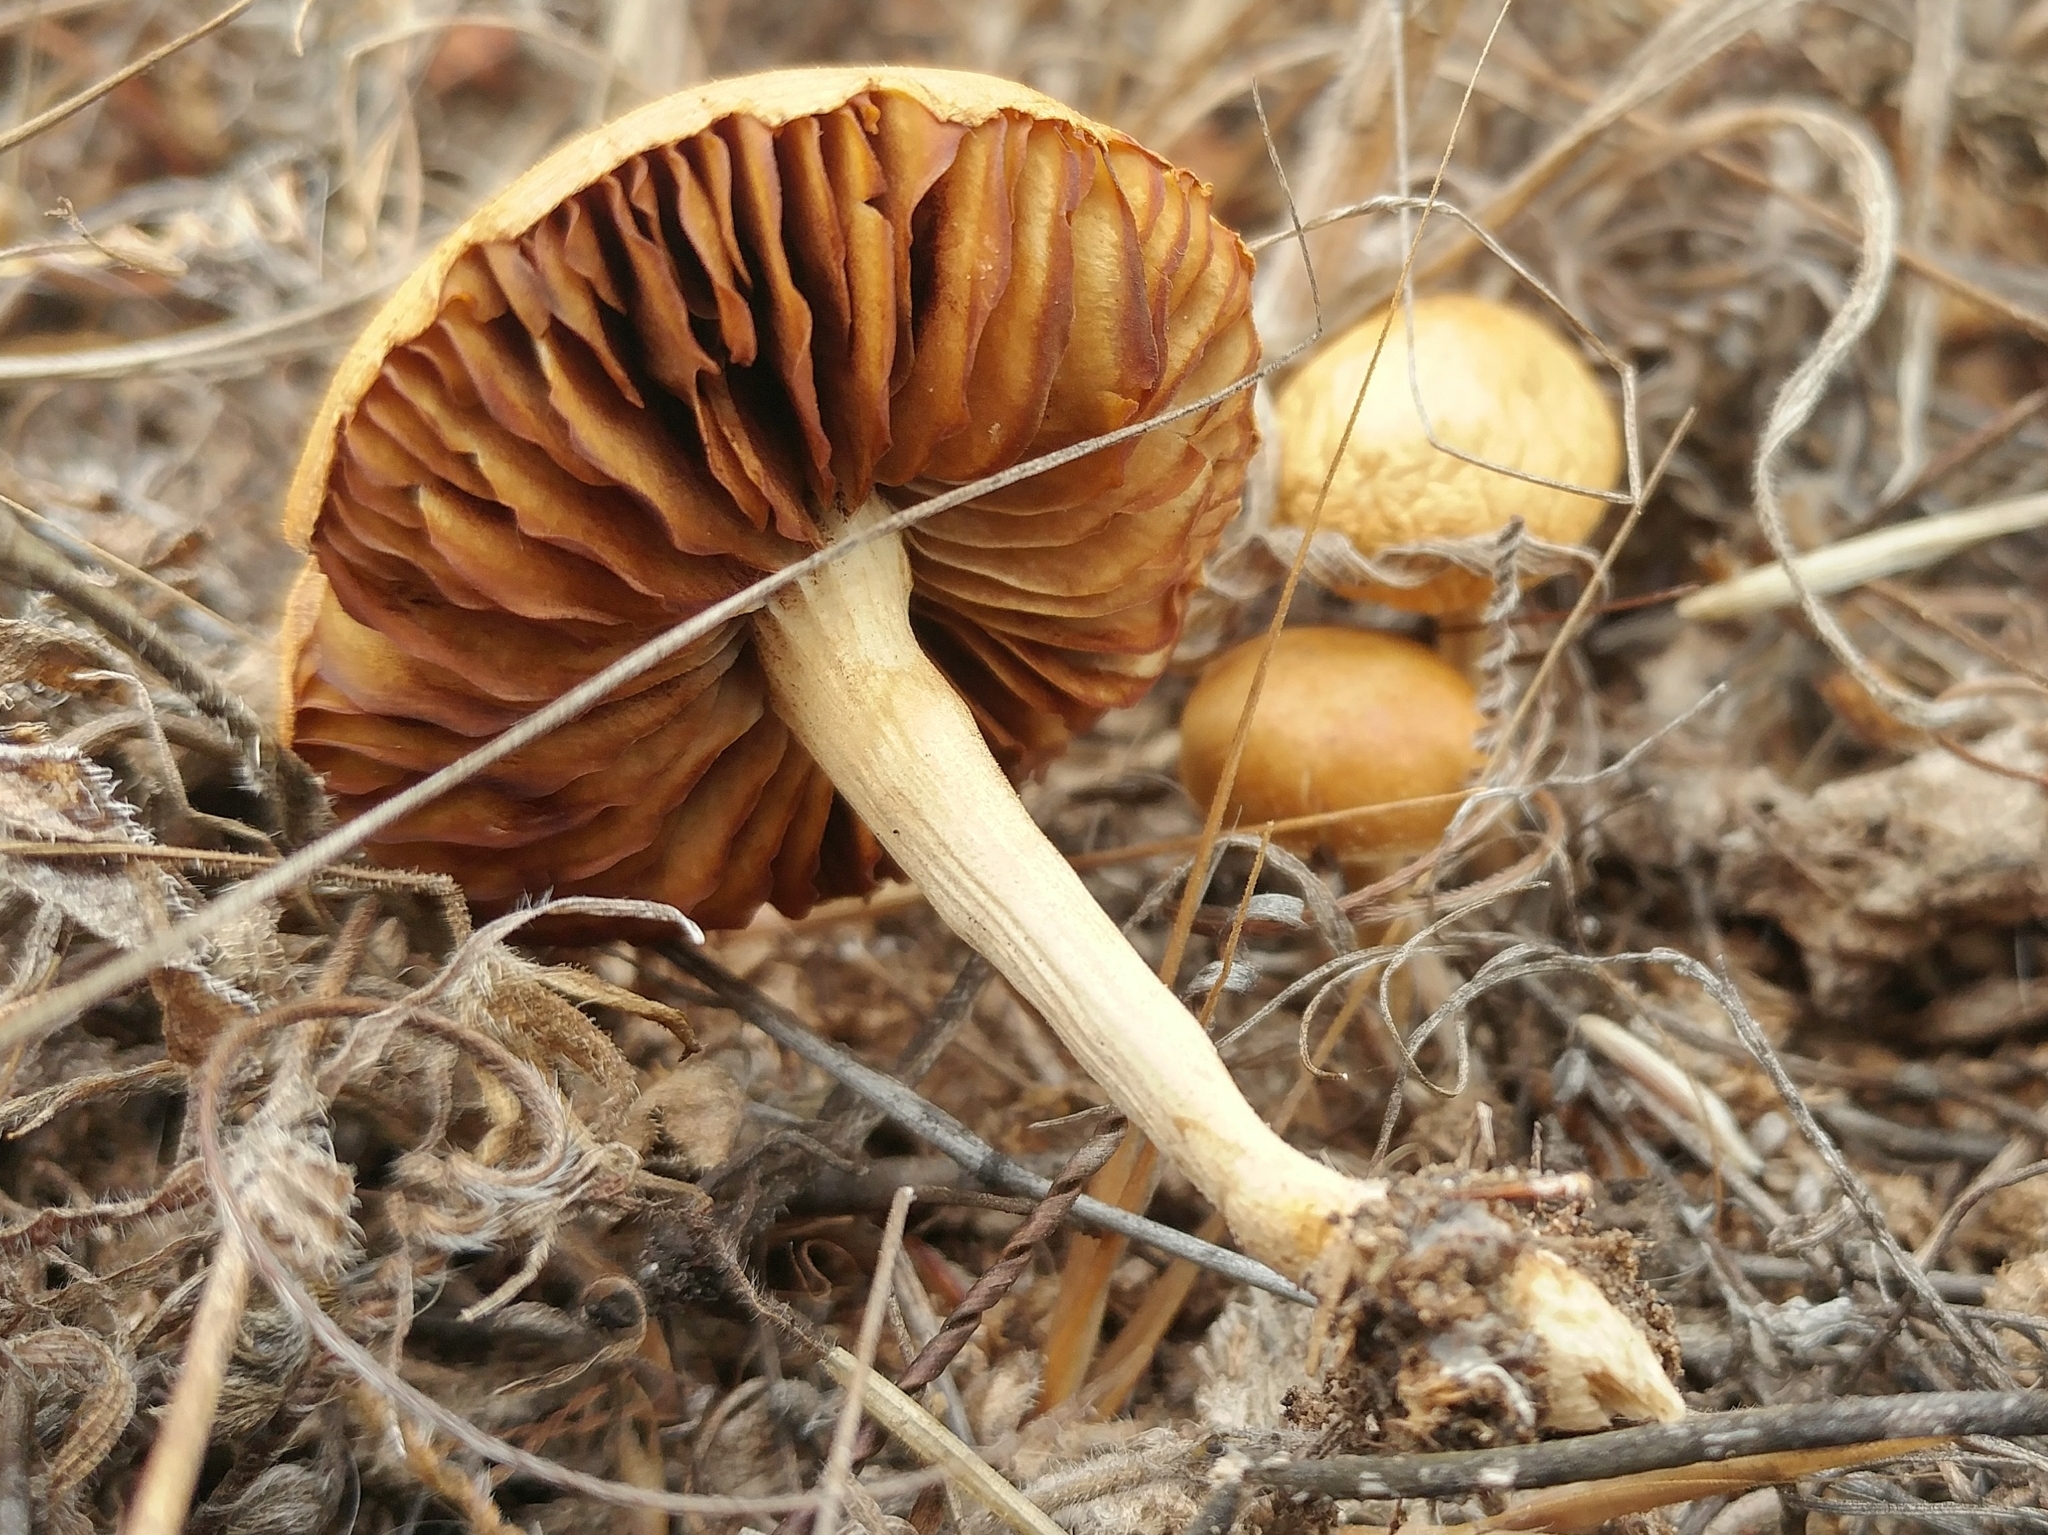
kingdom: Fungi
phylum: Basidiomycota
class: Agaricomycetes
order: Agaricales
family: Strophariaceae
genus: Agrocybe
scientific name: Agrocybe pediades
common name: Common fieldcap
